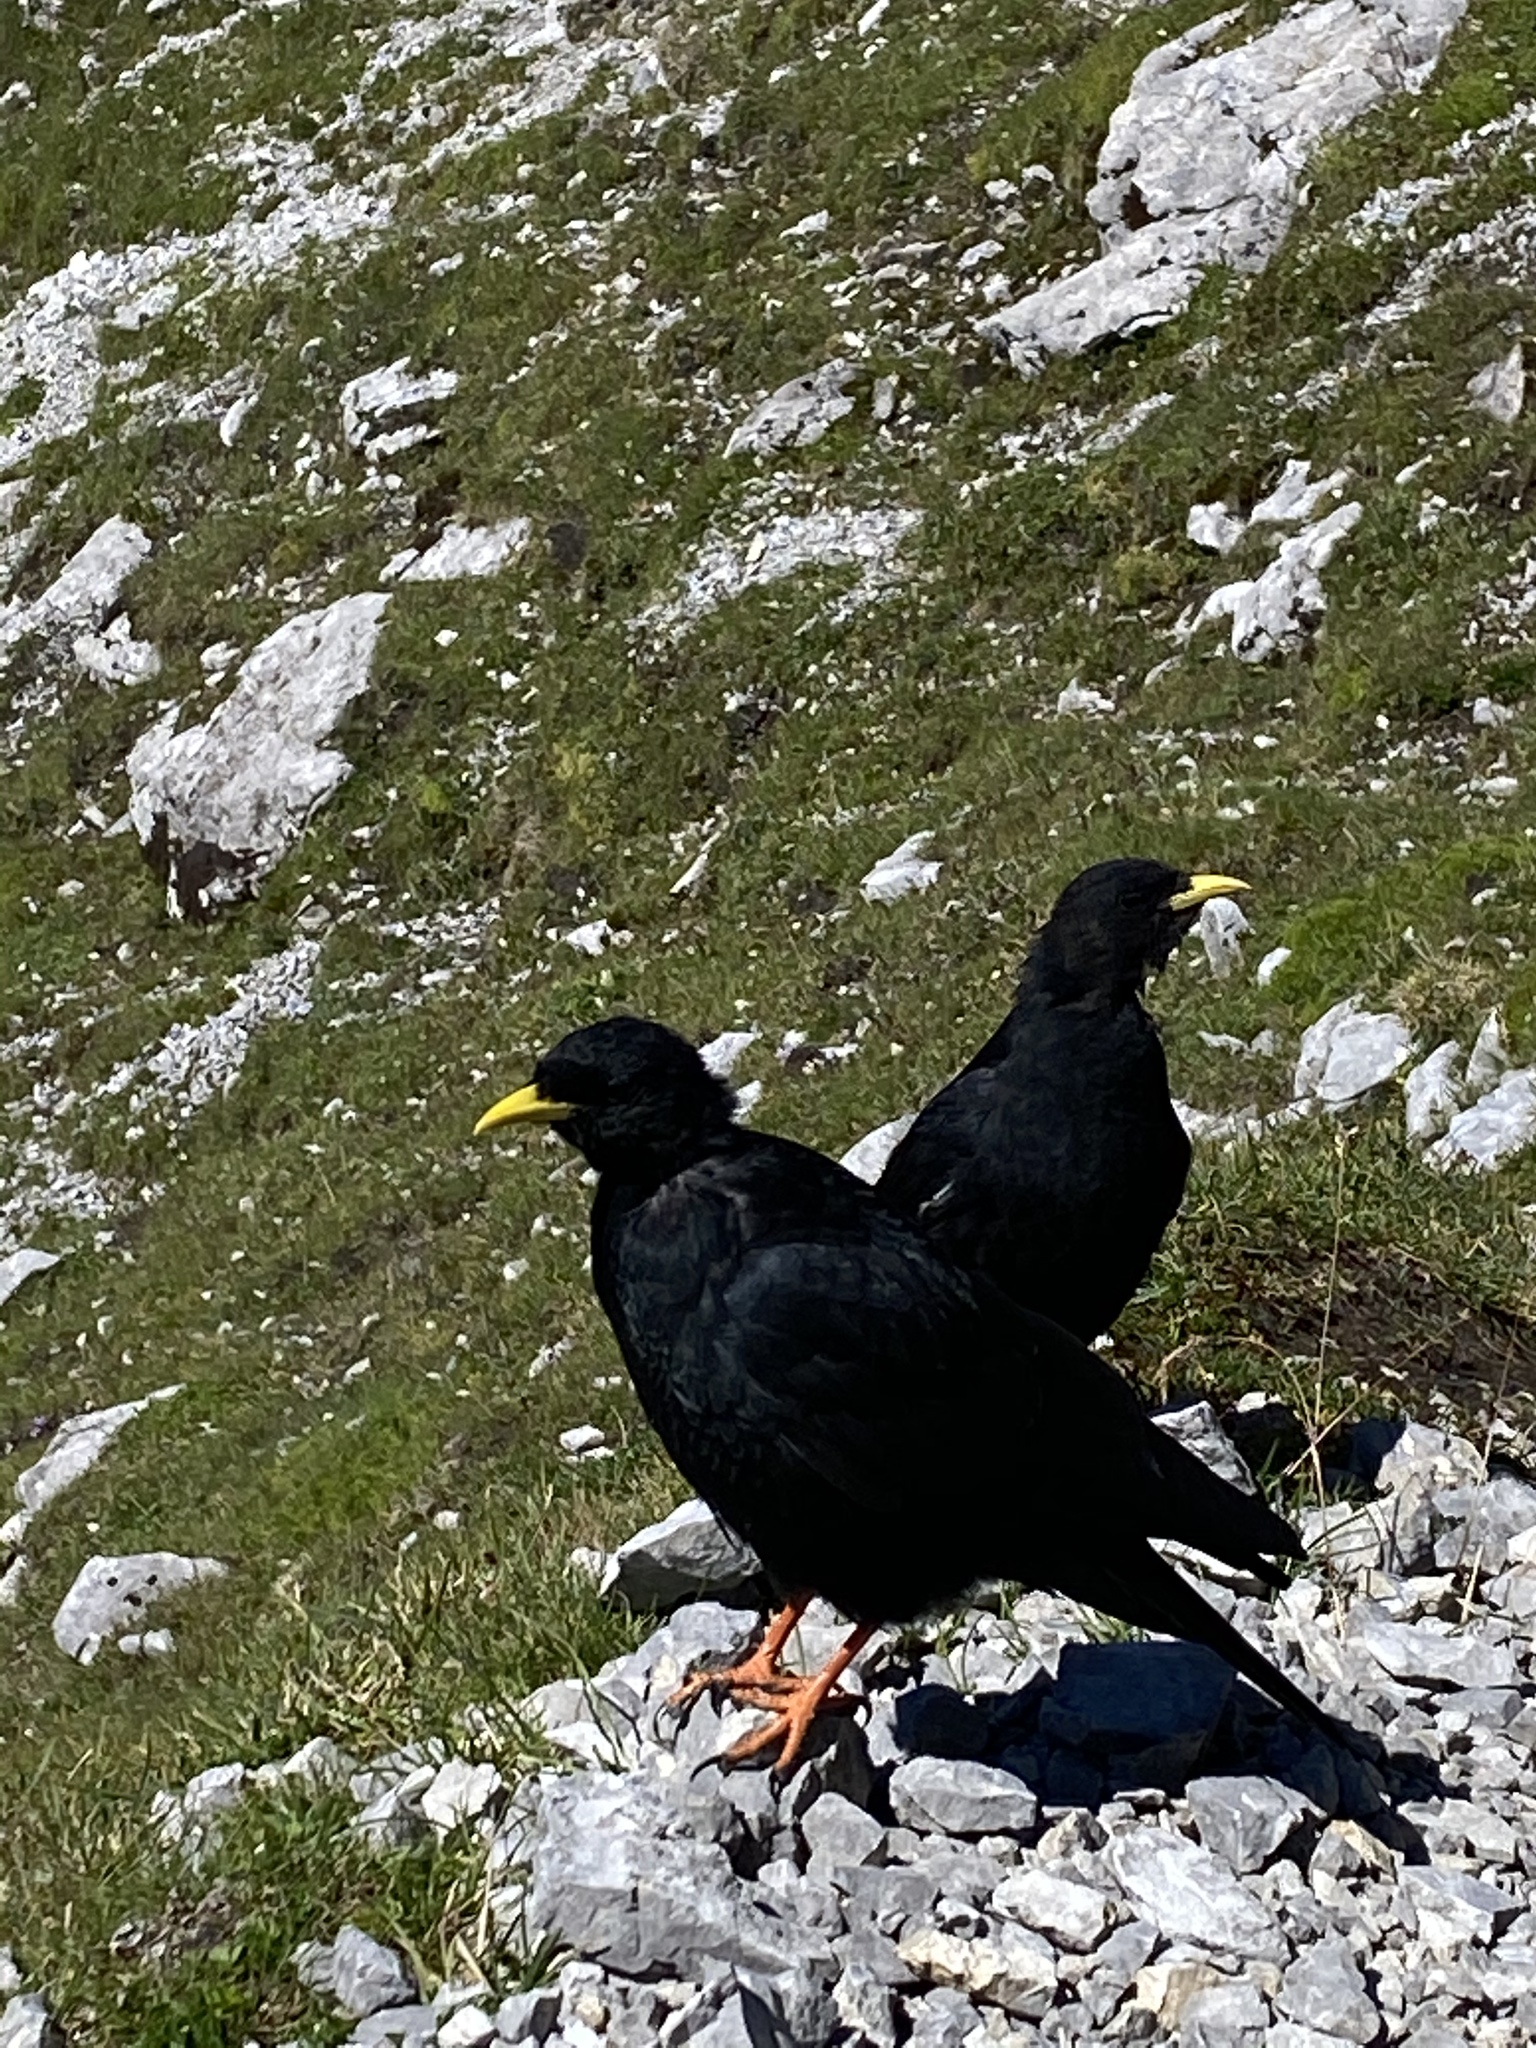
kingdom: Animalia
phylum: Chordata
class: Aves
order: Passeriformes
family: Corvidae
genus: Pyrrhocorax
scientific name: Pyrrhocorax graculus
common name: Alpine chough
